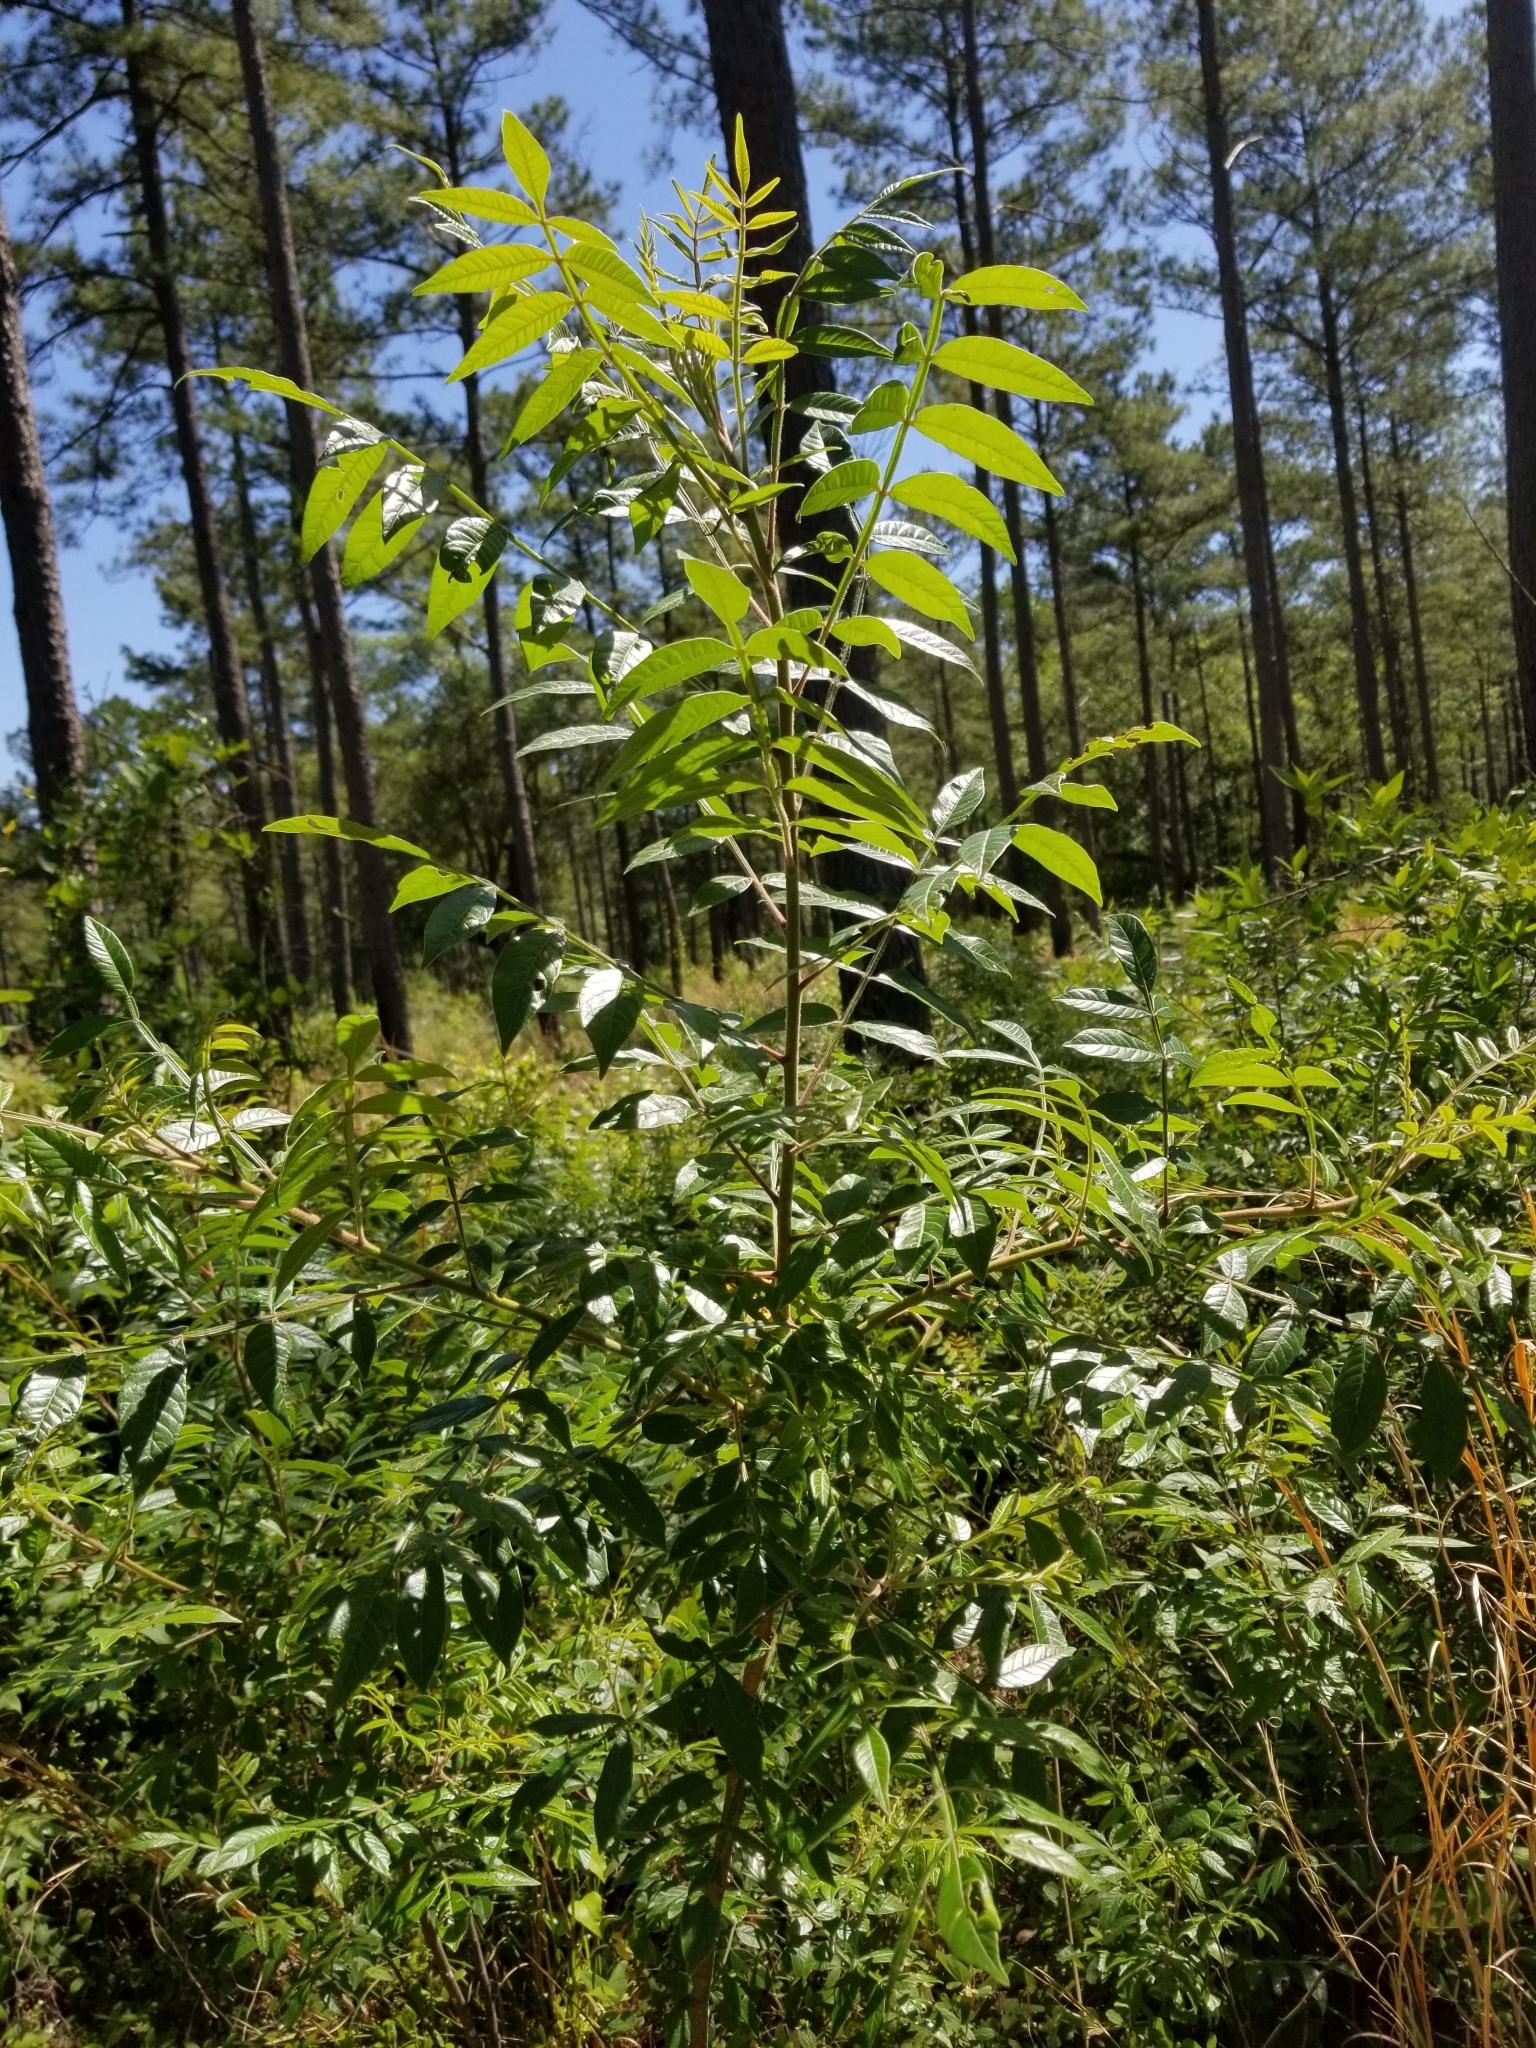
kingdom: Plantae
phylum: Tracheophyta
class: Magnoliopsida
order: Sapindales
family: Anacardiaceae
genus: Rhus
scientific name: Rhus copallina
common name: Shining sumac
